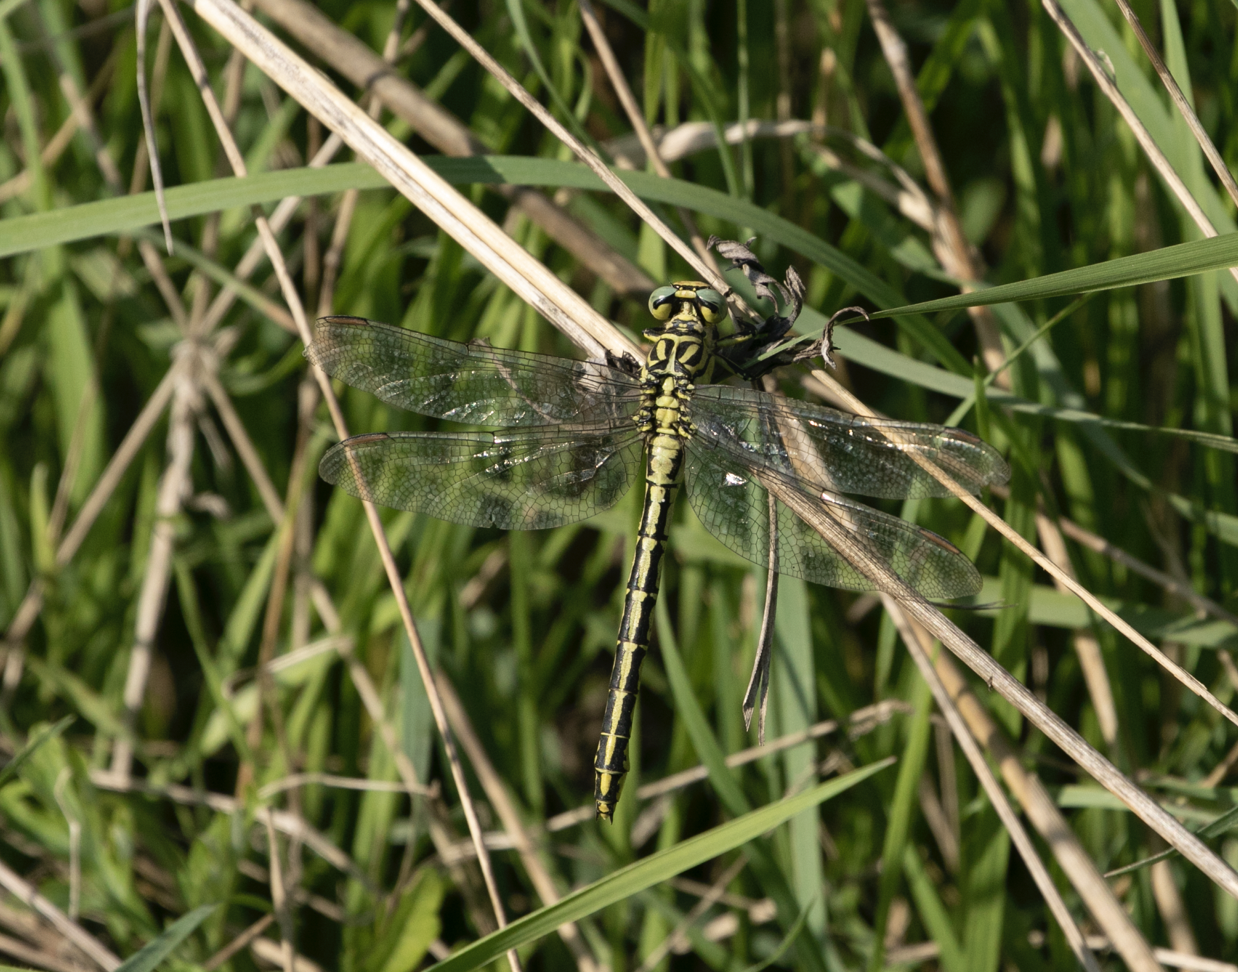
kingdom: Animalia
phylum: Arthropoda
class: Insecta
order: Odonata
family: Gomphidae
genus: Stylurus
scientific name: Stylurus flavipes
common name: River clubtail
